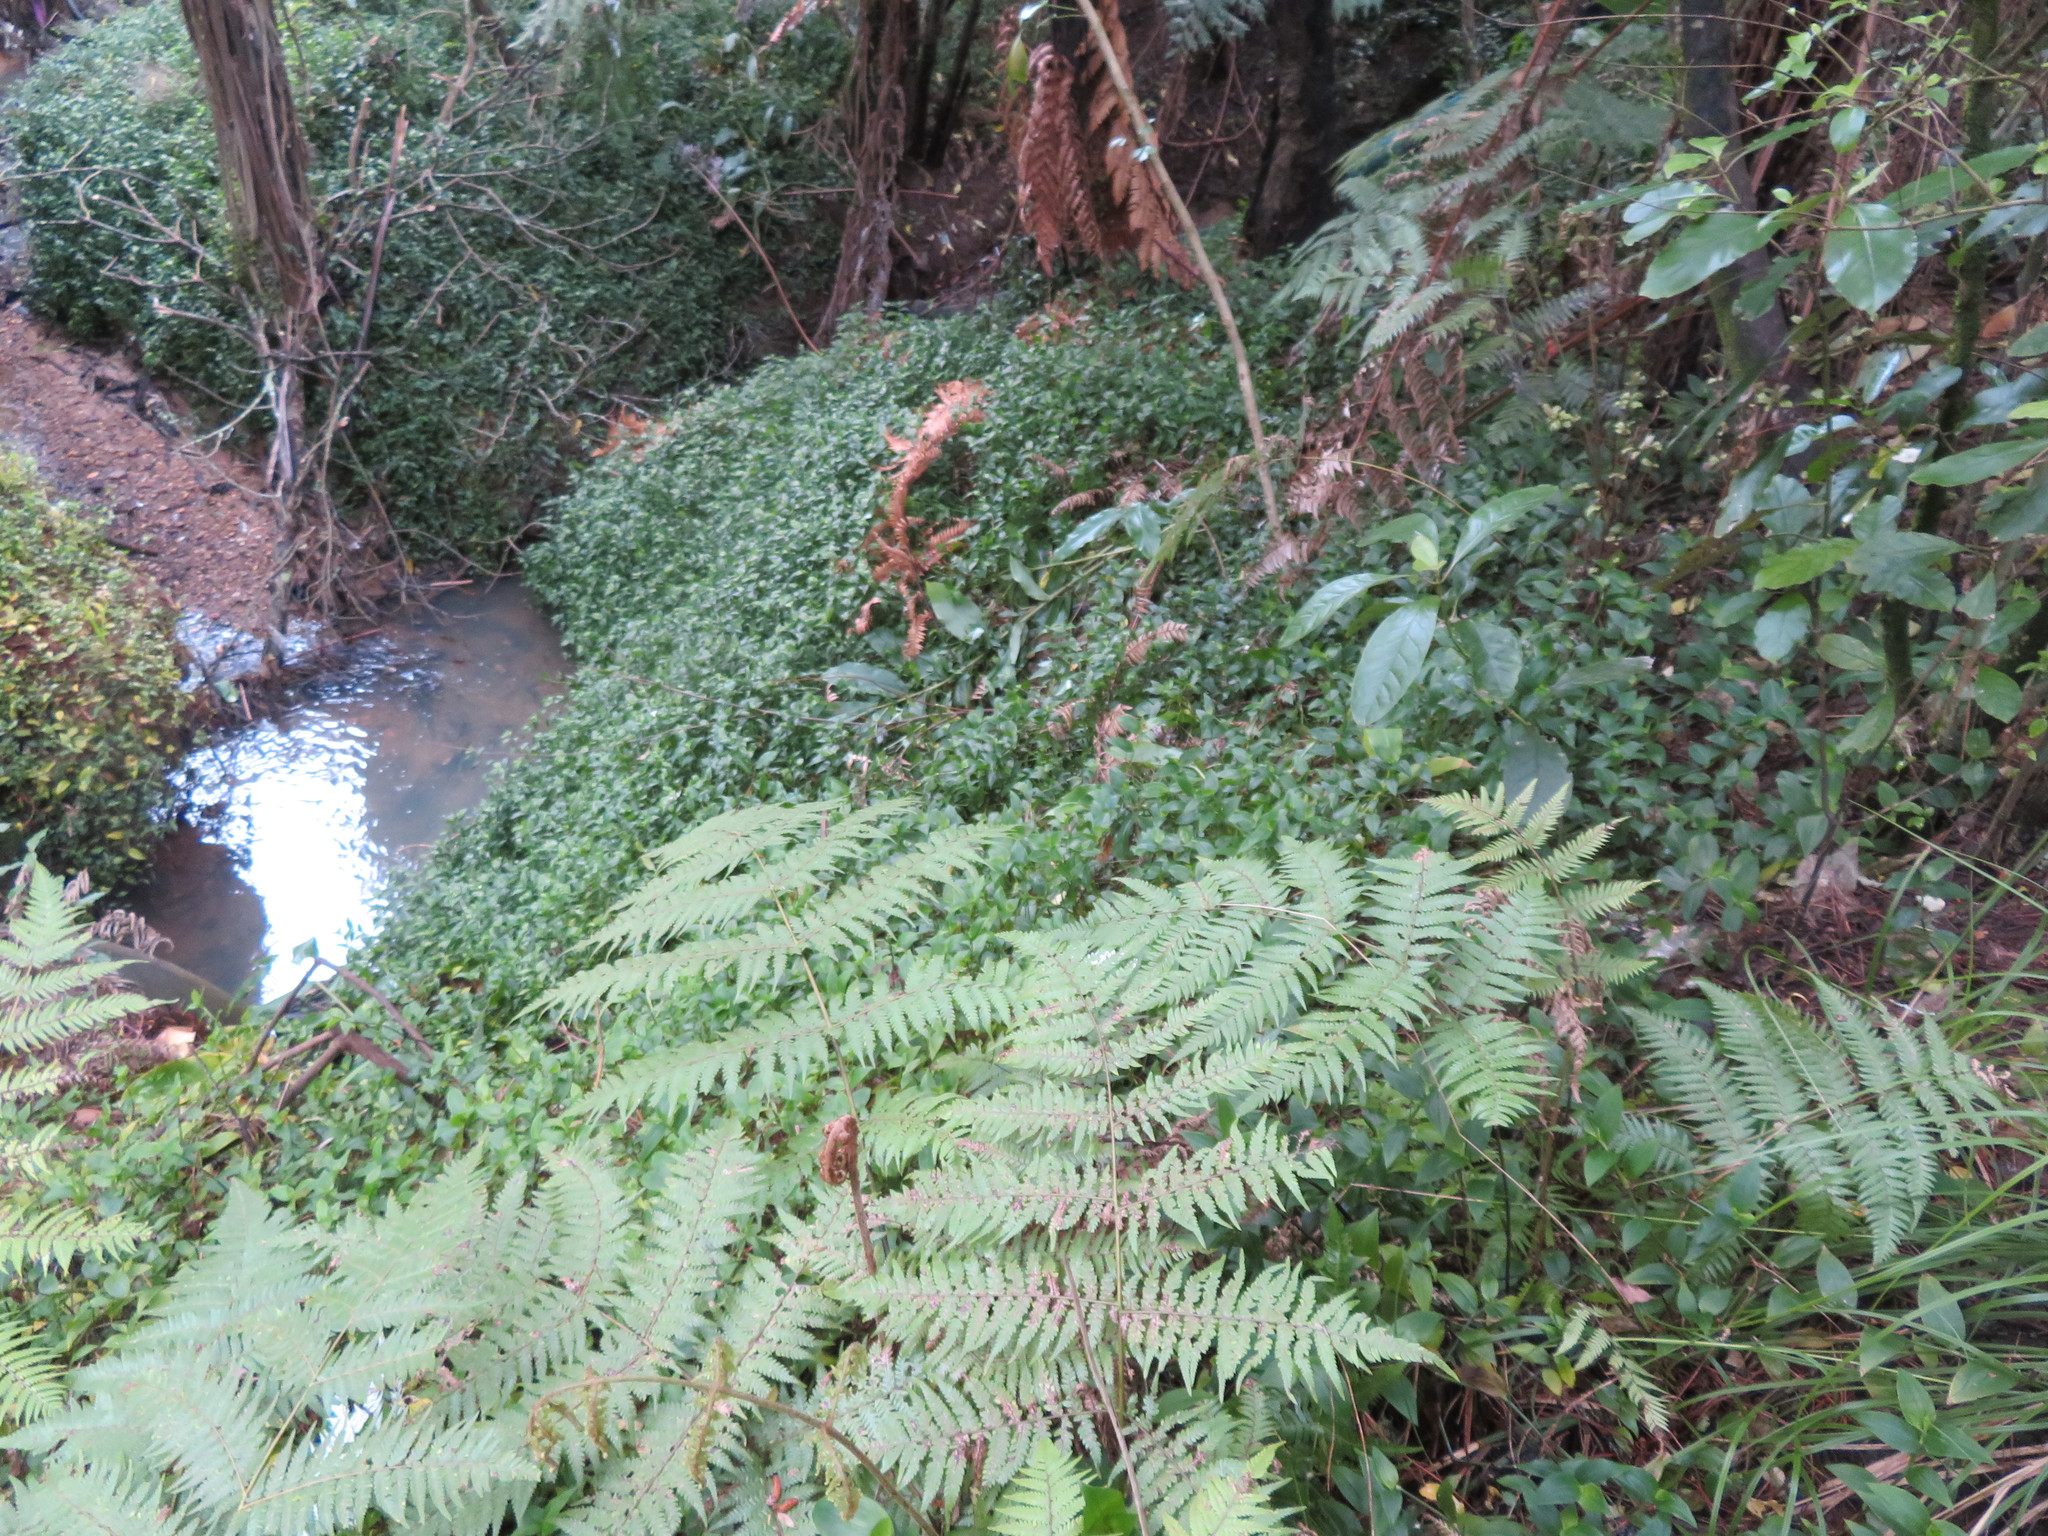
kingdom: Plantae
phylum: Tracheophyta
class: Liliopsida
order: Commelinales
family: Commelinaceae
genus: Tradescantia
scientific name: Tradescantia fluminensis
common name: Wandering-jew
